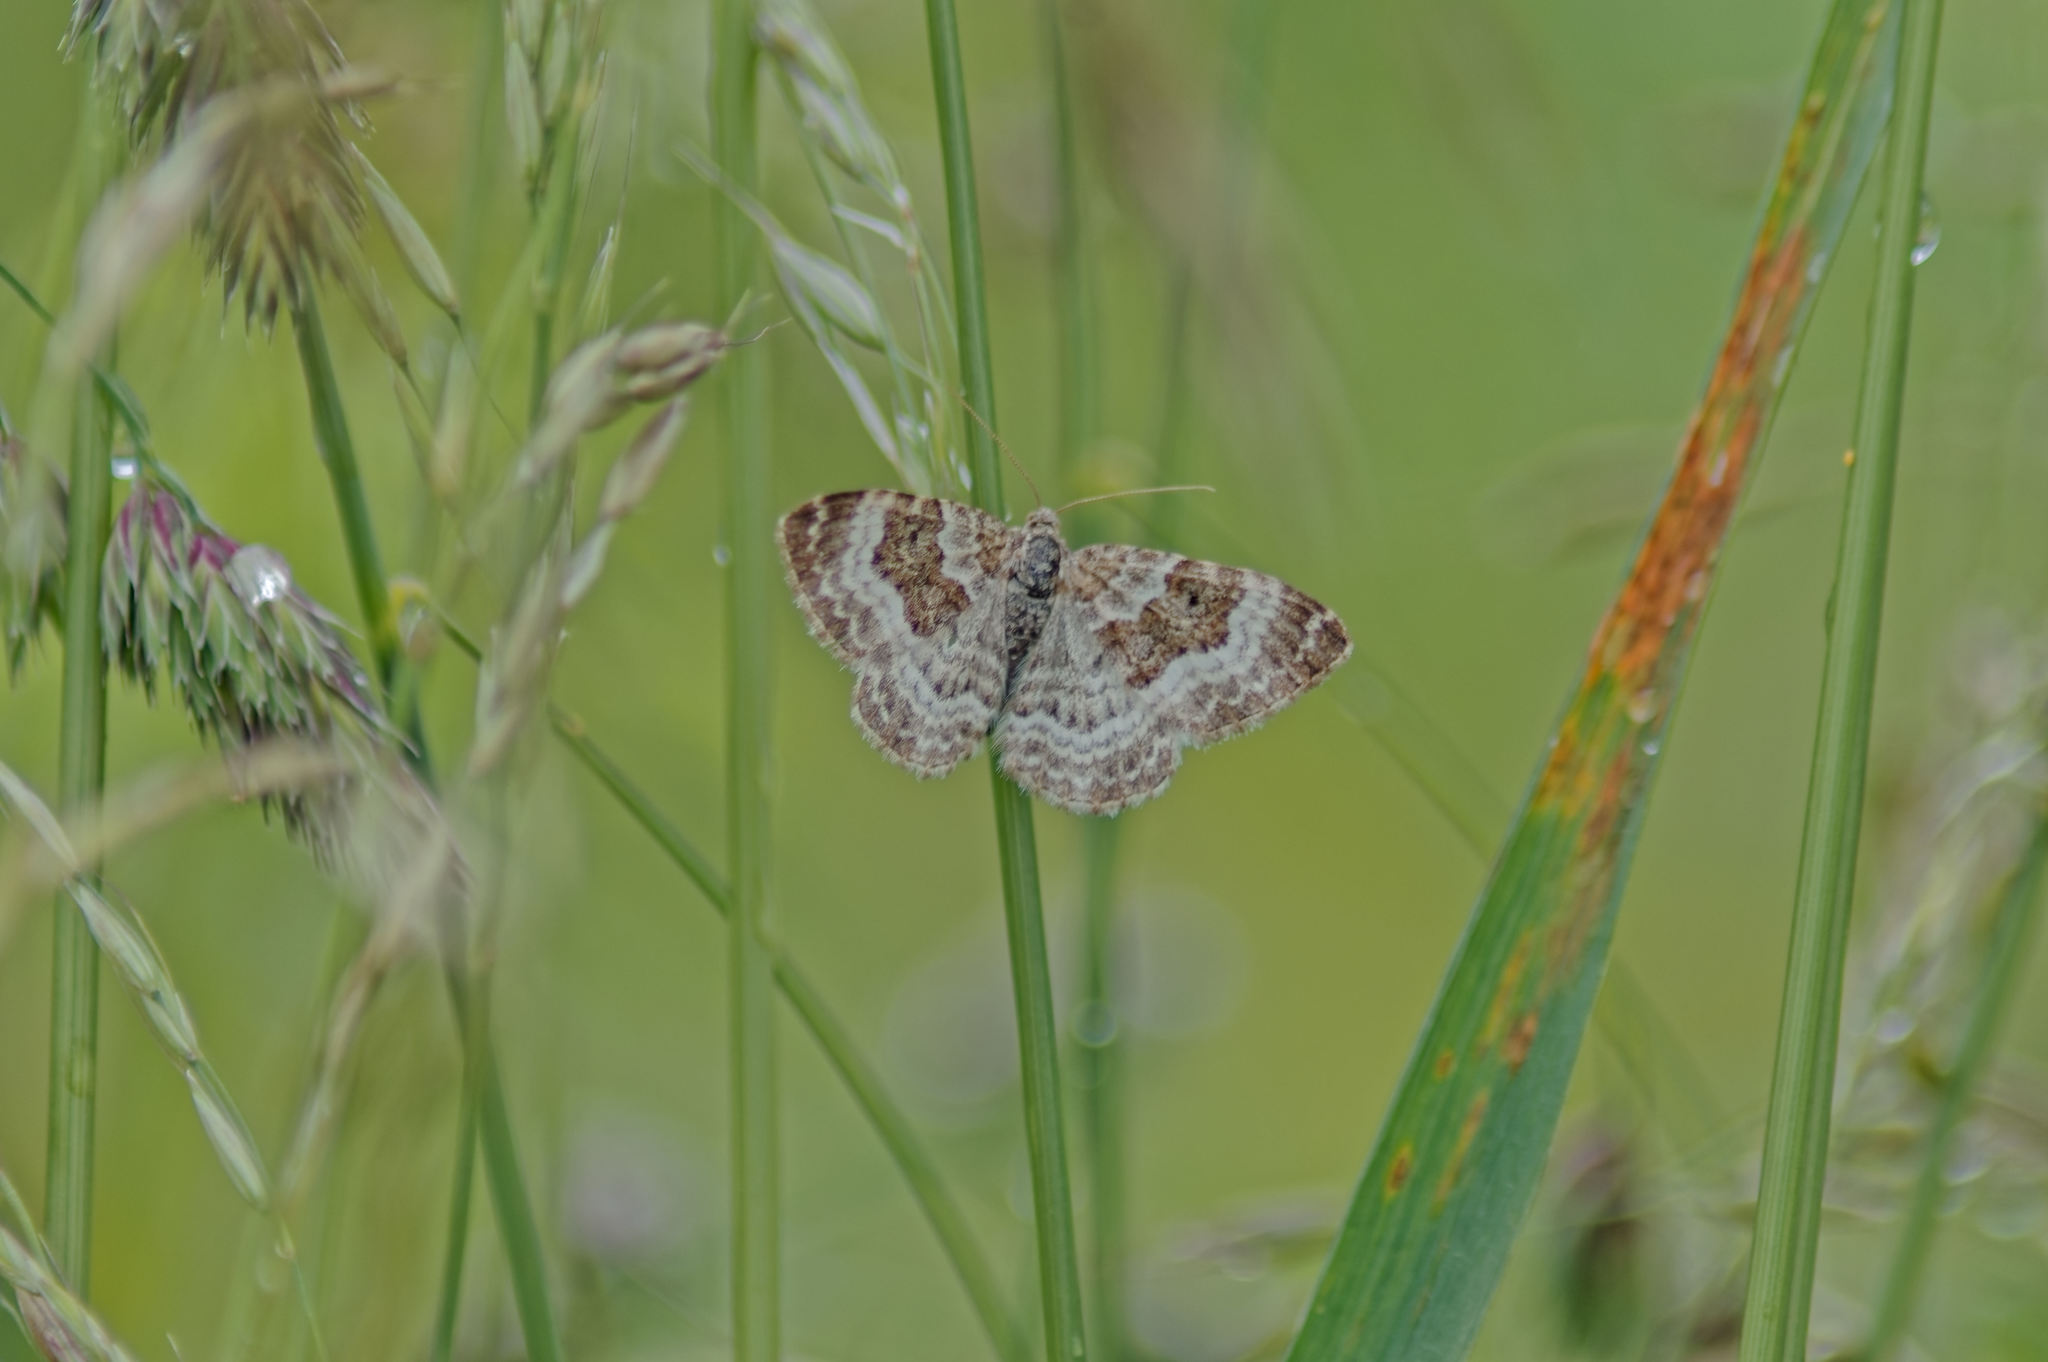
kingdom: Animalia
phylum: Arthropoda
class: Insecta
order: Lepidoptera
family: Geometridae
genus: Epirrhoe
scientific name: Epirrhoe alternata
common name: Common carpet
